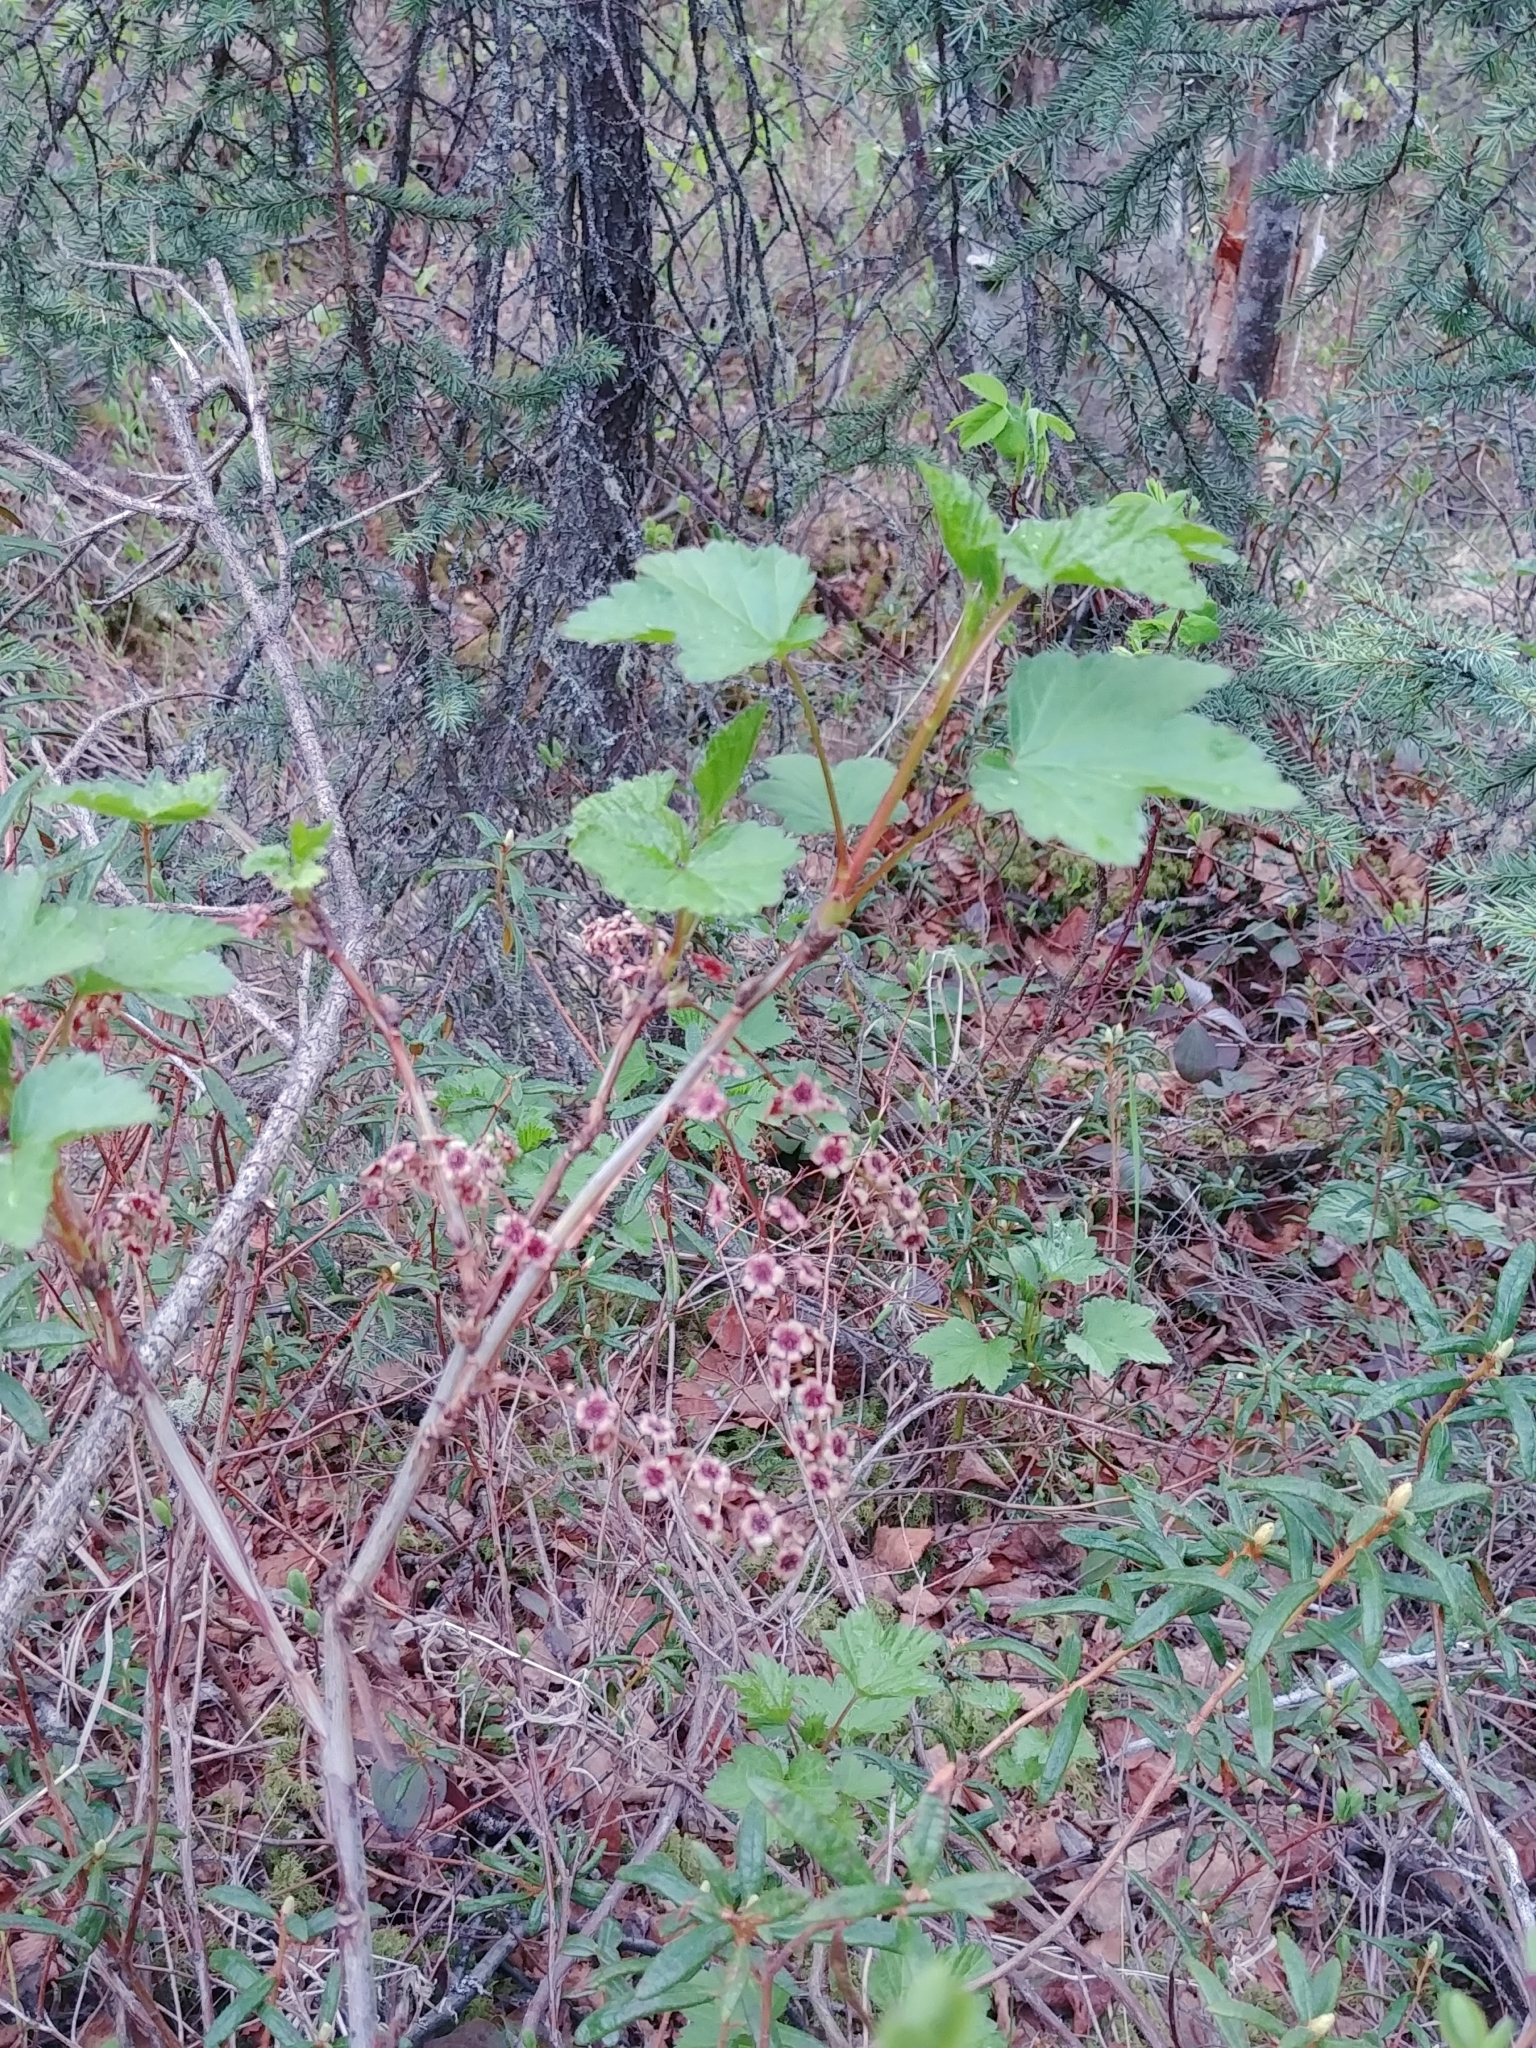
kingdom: Plantae
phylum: Tracheophyta
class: Magnoliopsida
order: Saxifragales
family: Grossulariaceae
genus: Ribes
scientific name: Ribes triste
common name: Swamp red currant
